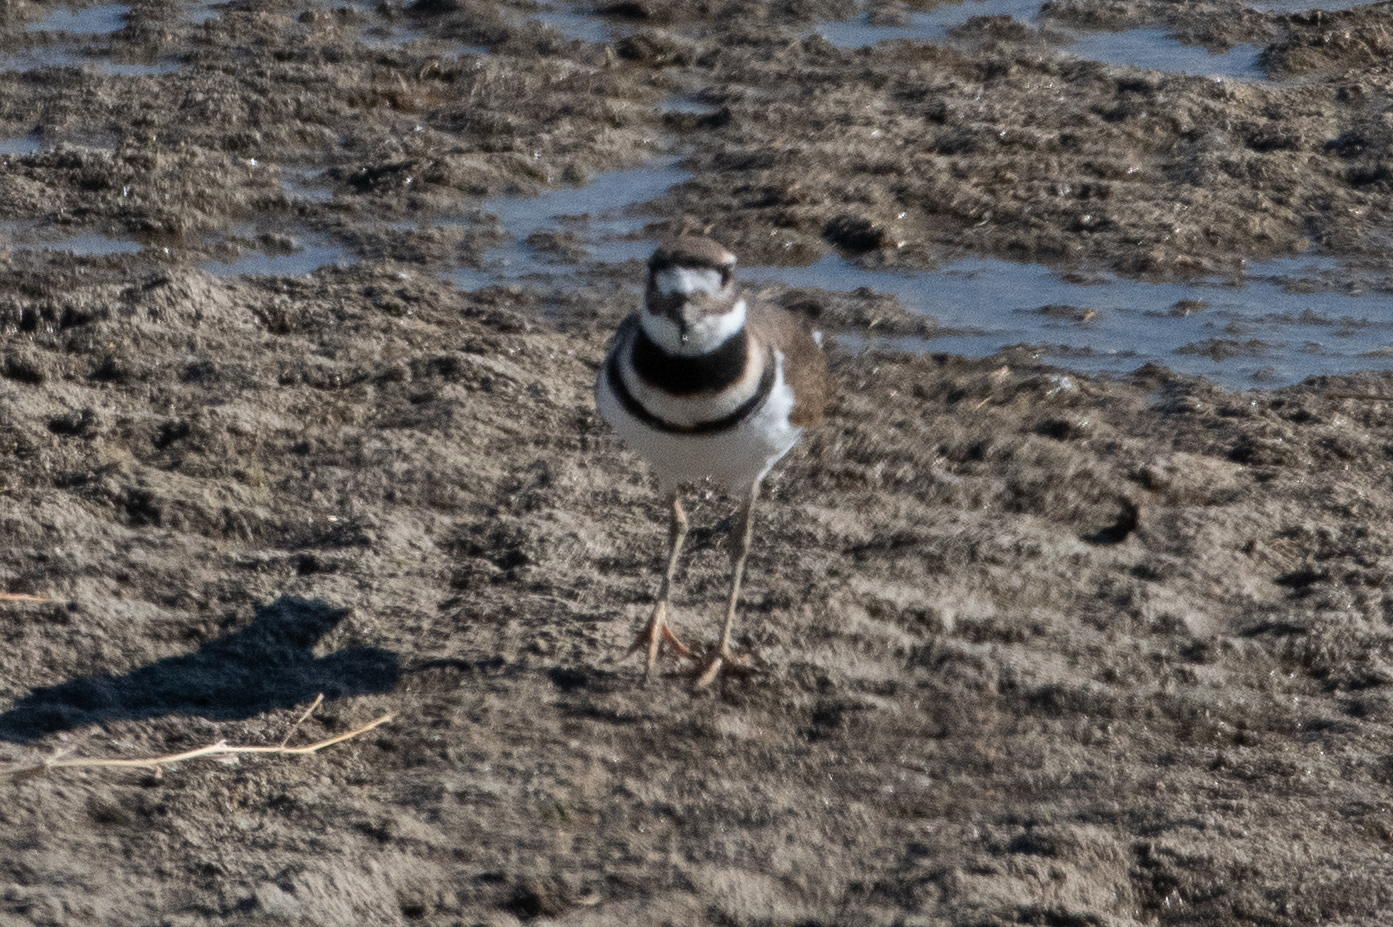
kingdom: Animalia
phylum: Chordata
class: Aves
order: Charadriiformes
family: Charadriidae
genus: Charadrius
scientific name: Charadrius vociferus
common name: Killdeer
